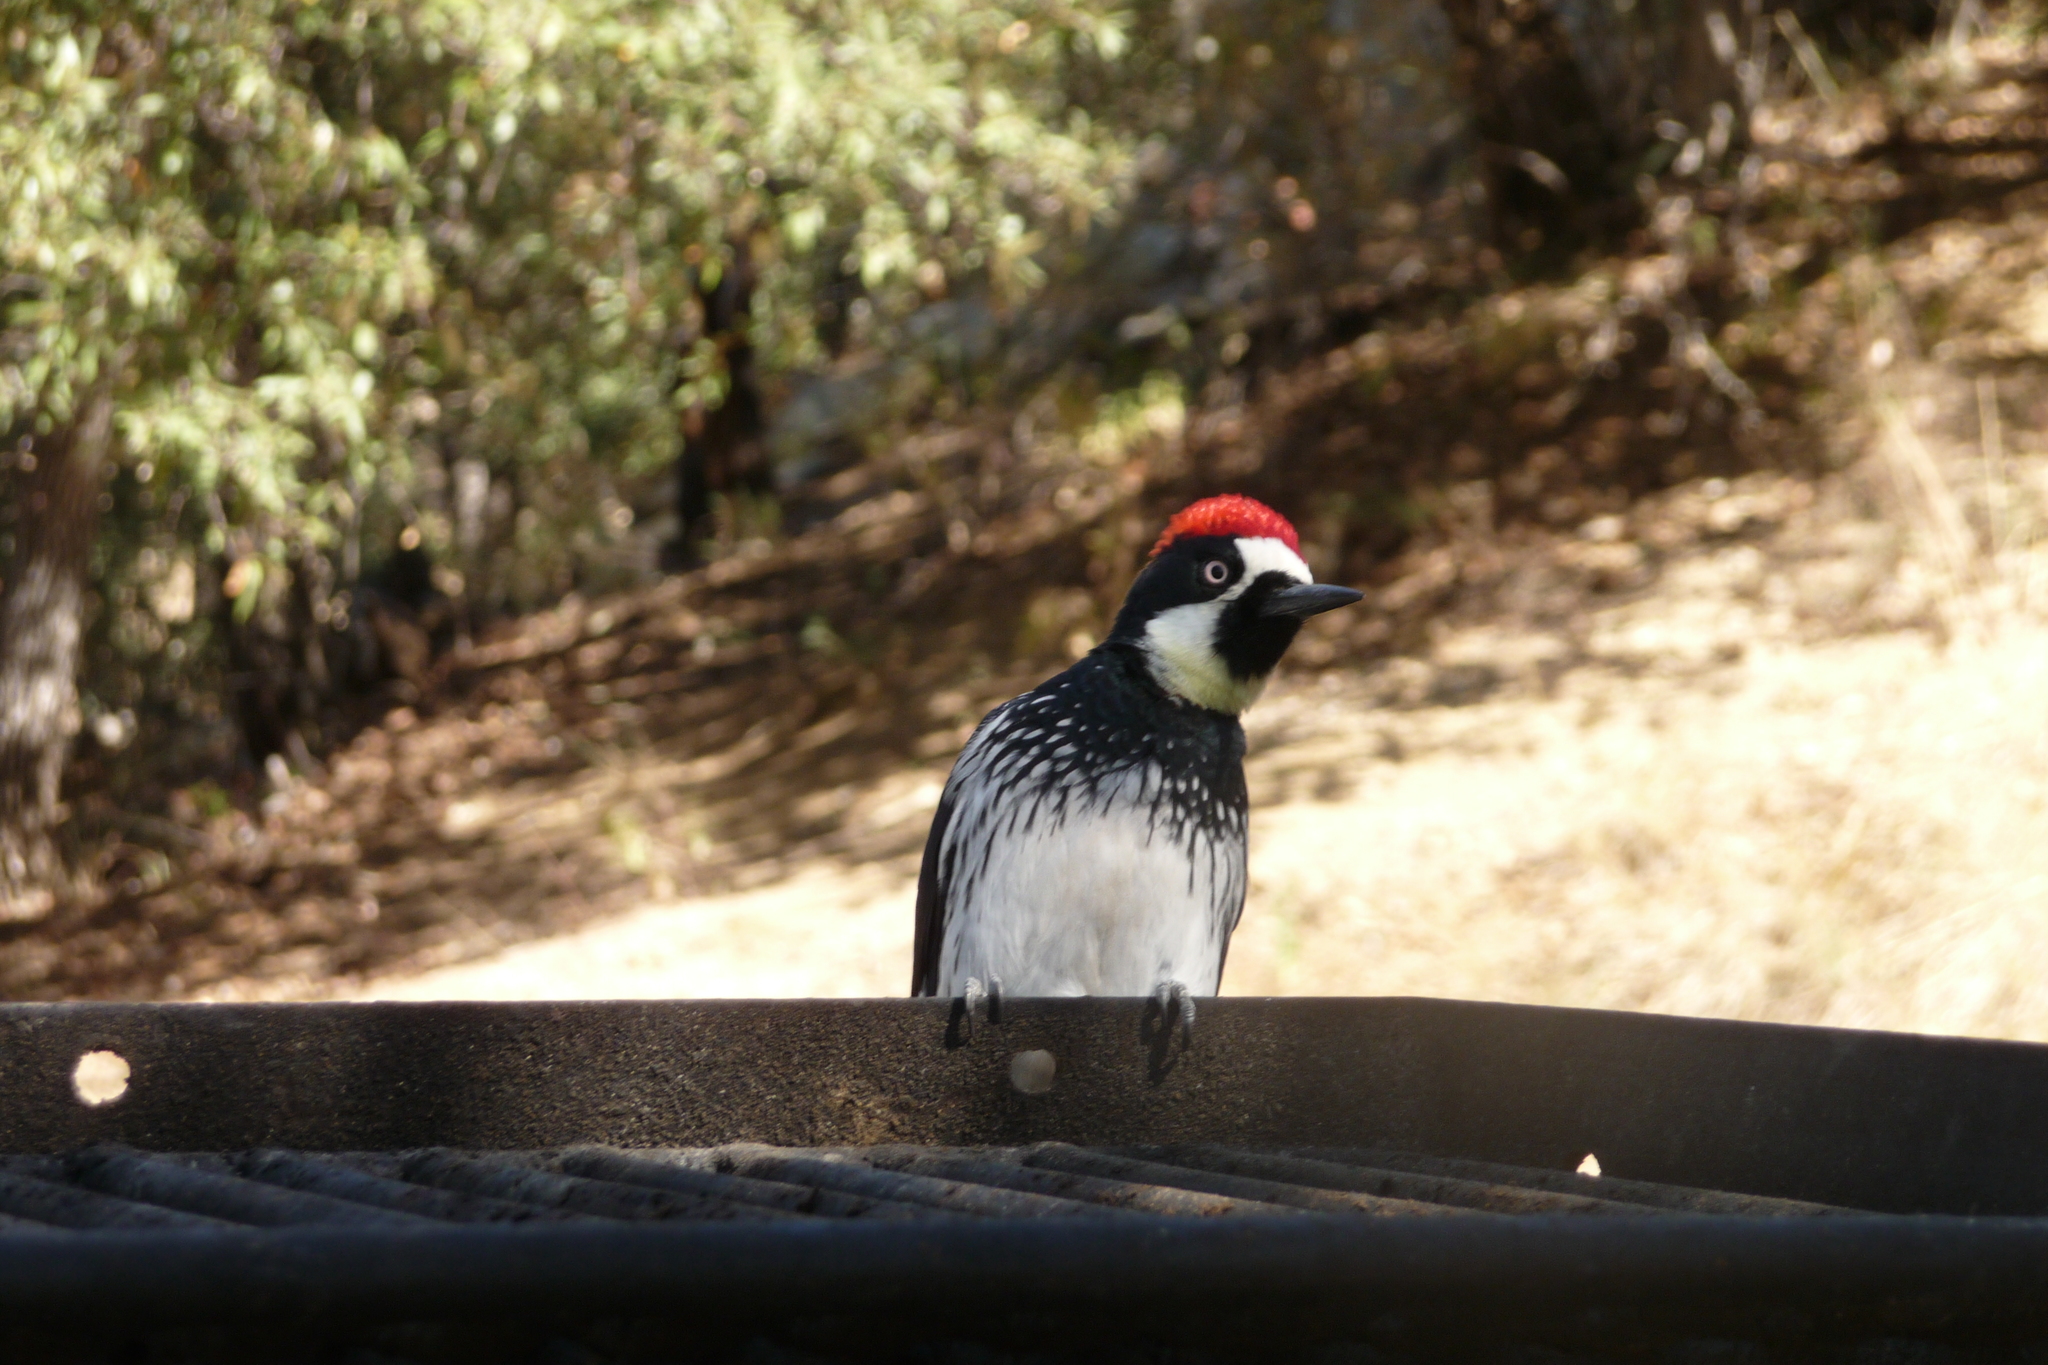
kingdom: Animalia
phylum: Chordata
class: Aves
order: Piciformes
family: Picidae
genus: Melanerpes
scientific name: Melanerpes formicivorus
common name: Acorn woodpecker
